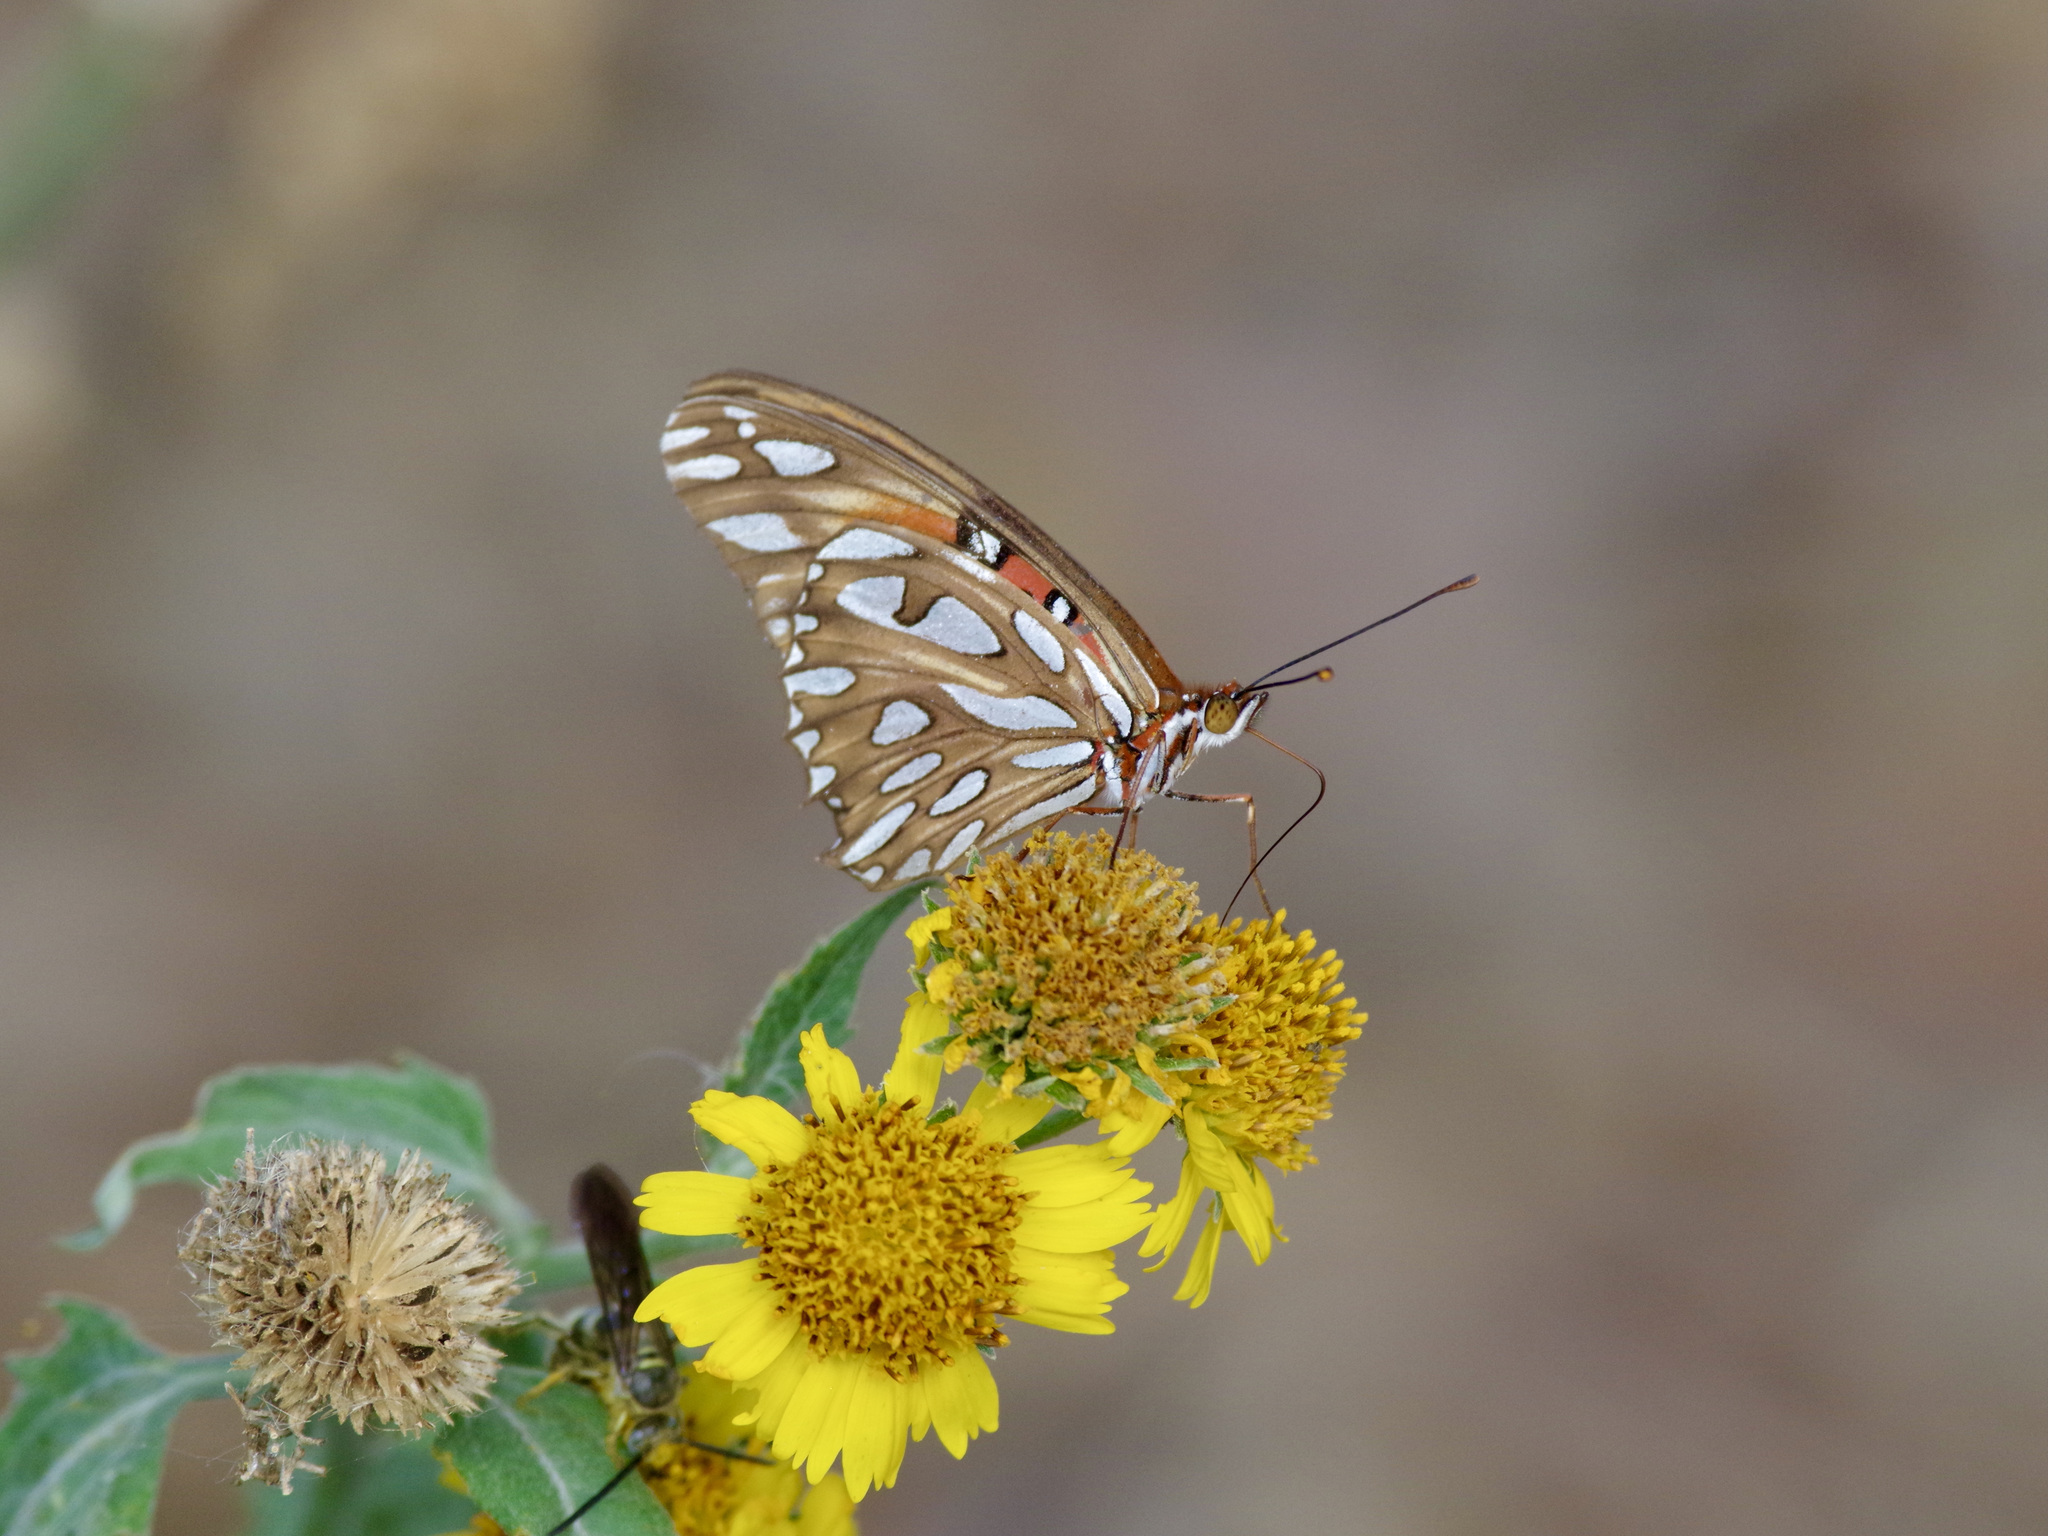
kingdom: Animalia
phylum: Arthropoda
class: Insecta
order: Lepidoptera
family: Nymphalidae
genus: Dione
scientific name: Dione vanillae
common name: Gulf fritillary
